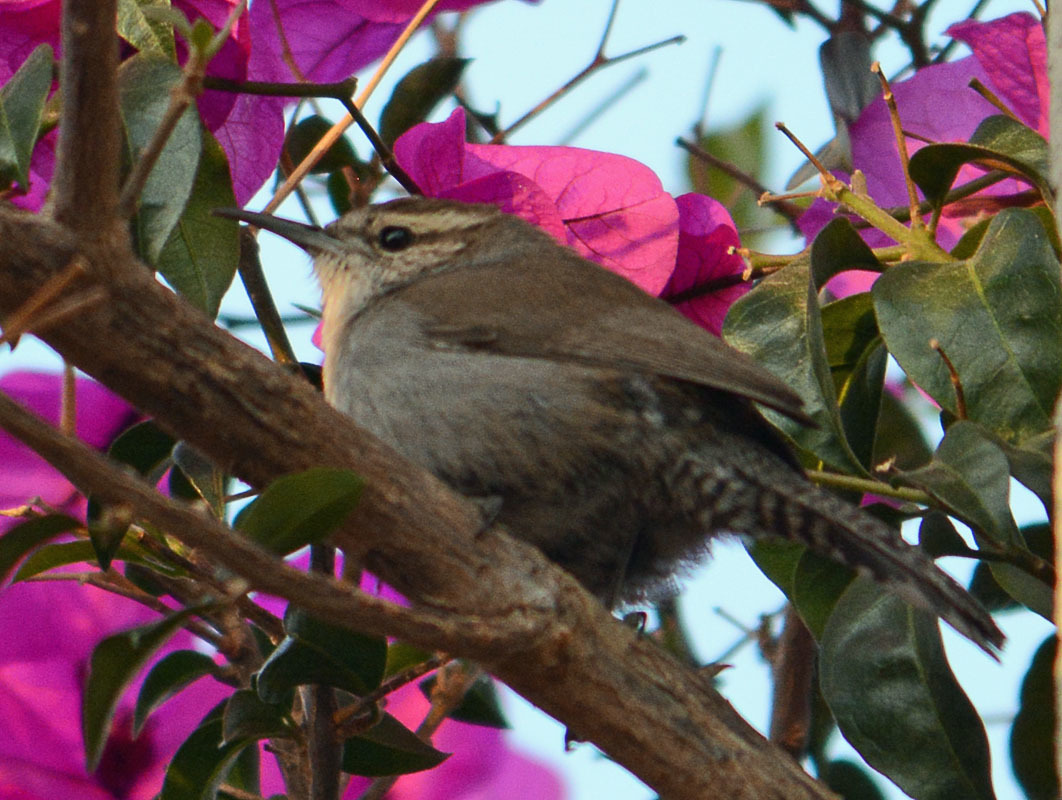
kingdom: Animalia
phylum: Chordata
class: Aves
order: Passeriformes
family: Troglodytidae
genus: Thryomanes
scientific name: Thryomanes bewickii
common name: Bewick's wren
